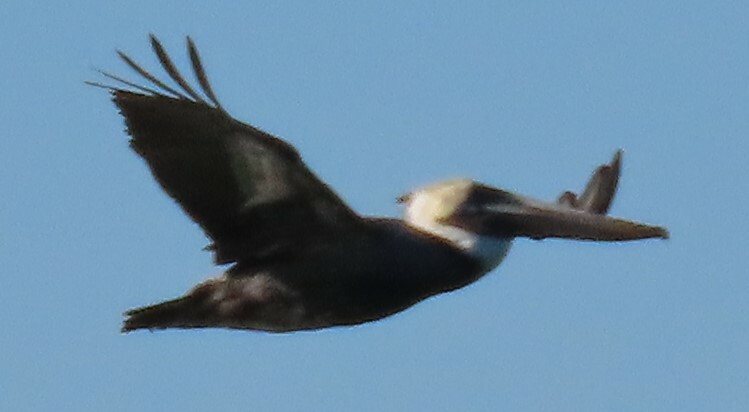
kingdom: Animalia
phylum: Chordata
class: Aves
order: Pelecaniformes
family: Pelecanidae
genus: Pelecanus
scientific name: Pelecanus occidentalis
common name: Brown pelican
